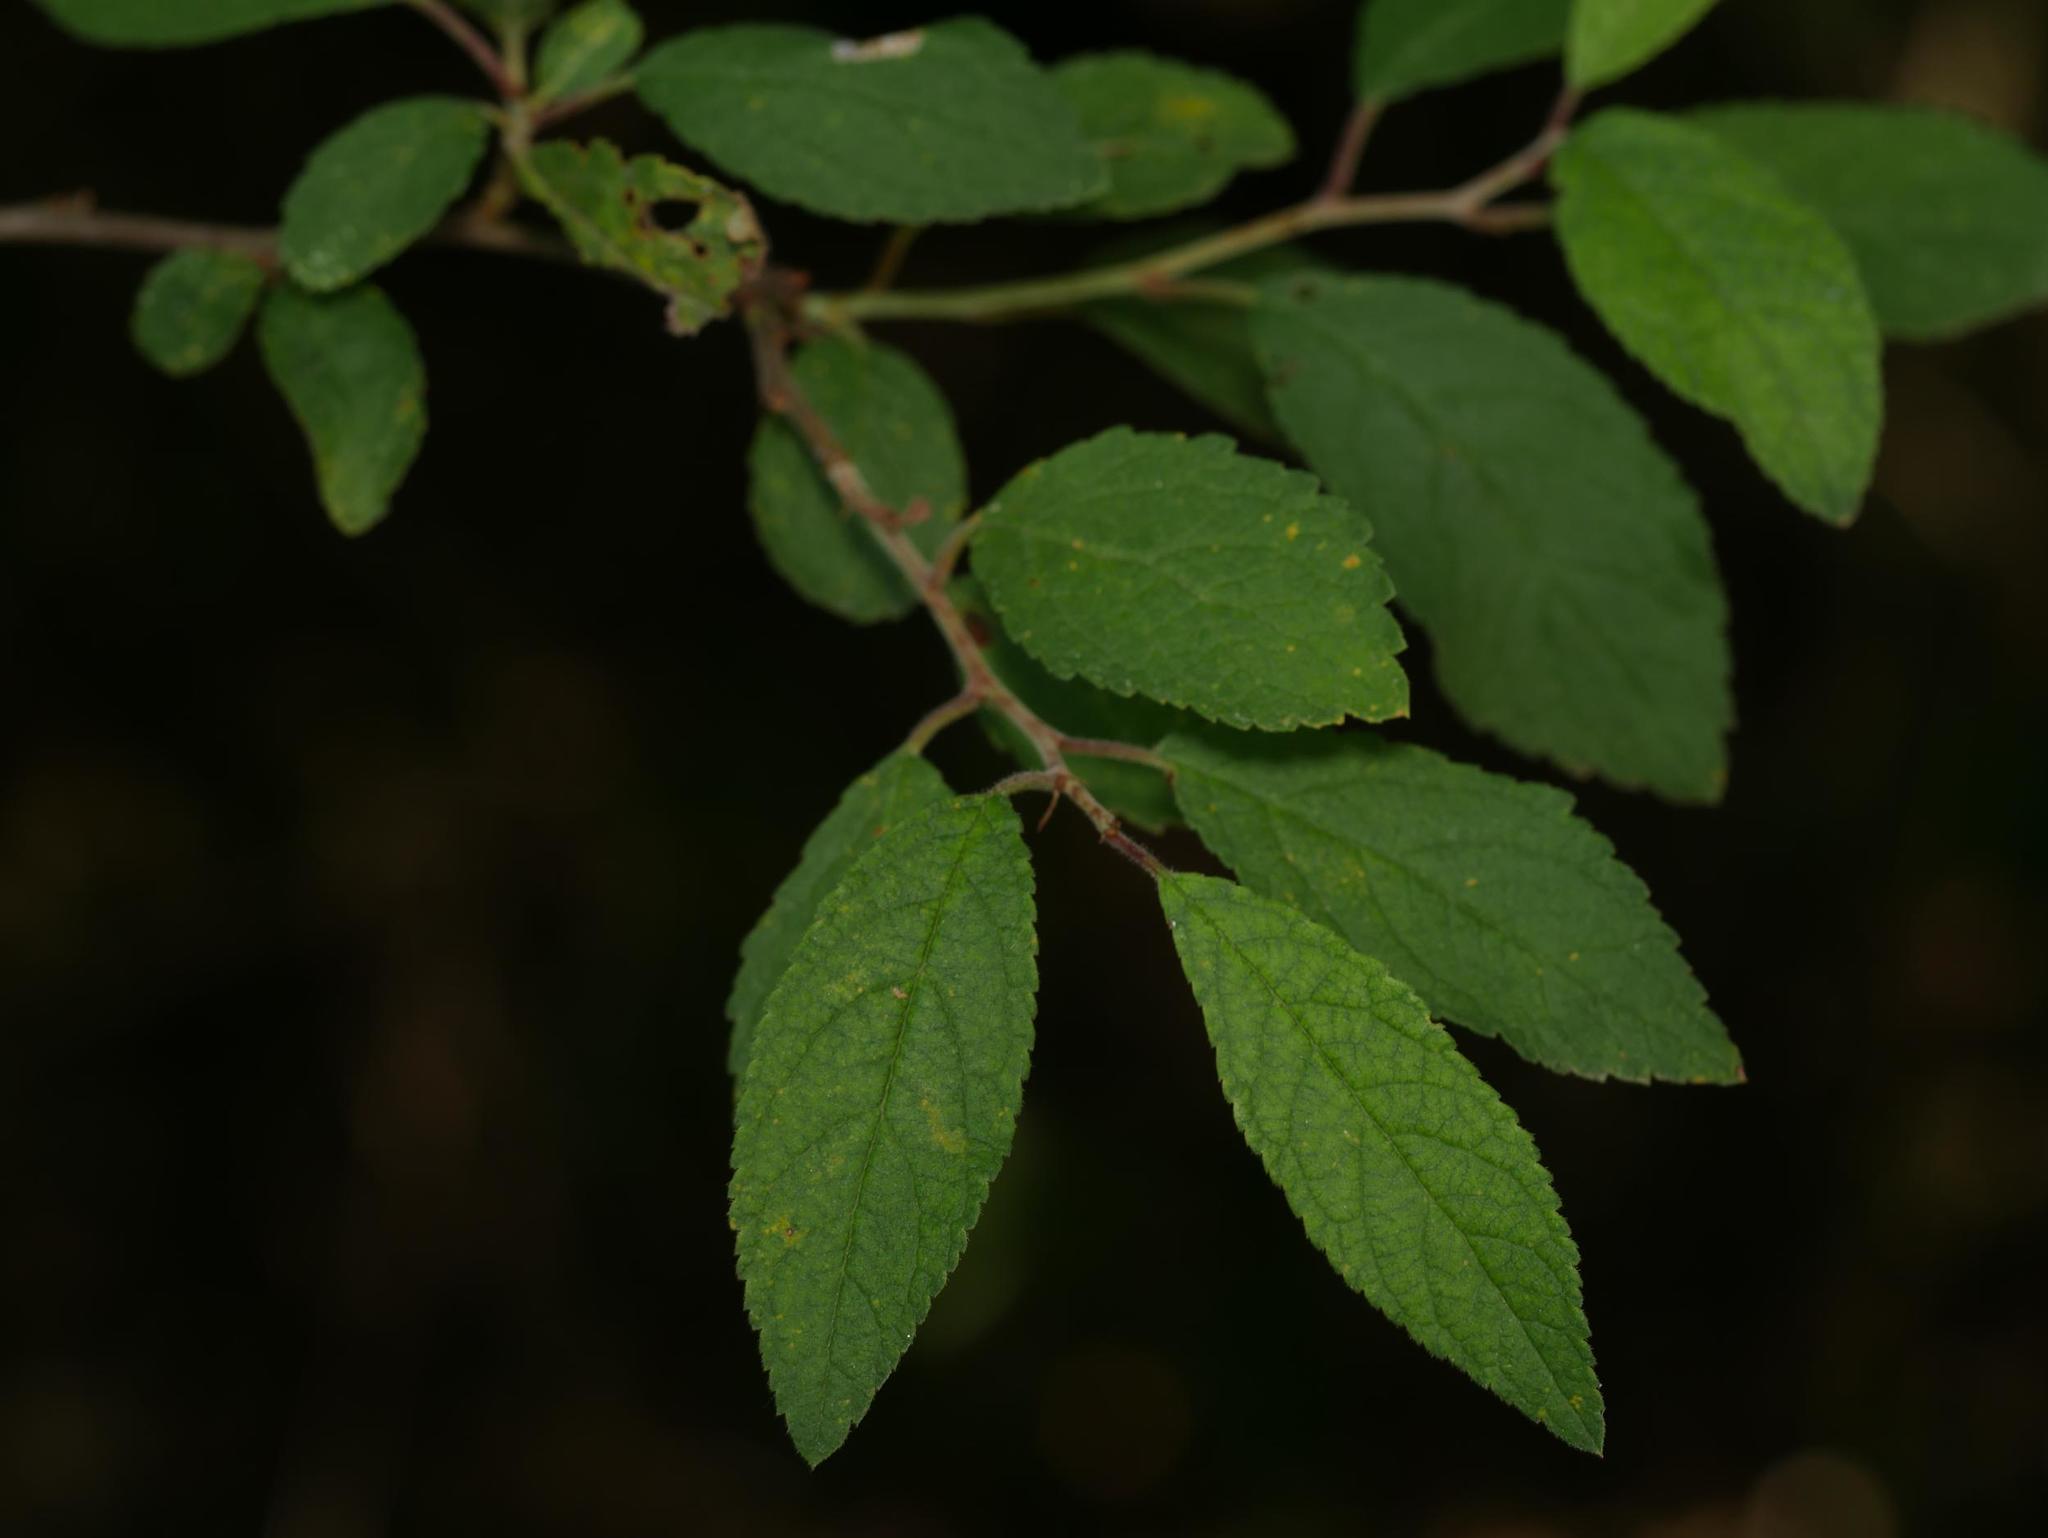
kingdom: Plantae
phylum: Tracheophyta
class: Magnoliopsida
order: Rosales
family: Rosaceae
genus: Prunus
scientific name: Prunus spinosa
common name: Blackthorn
